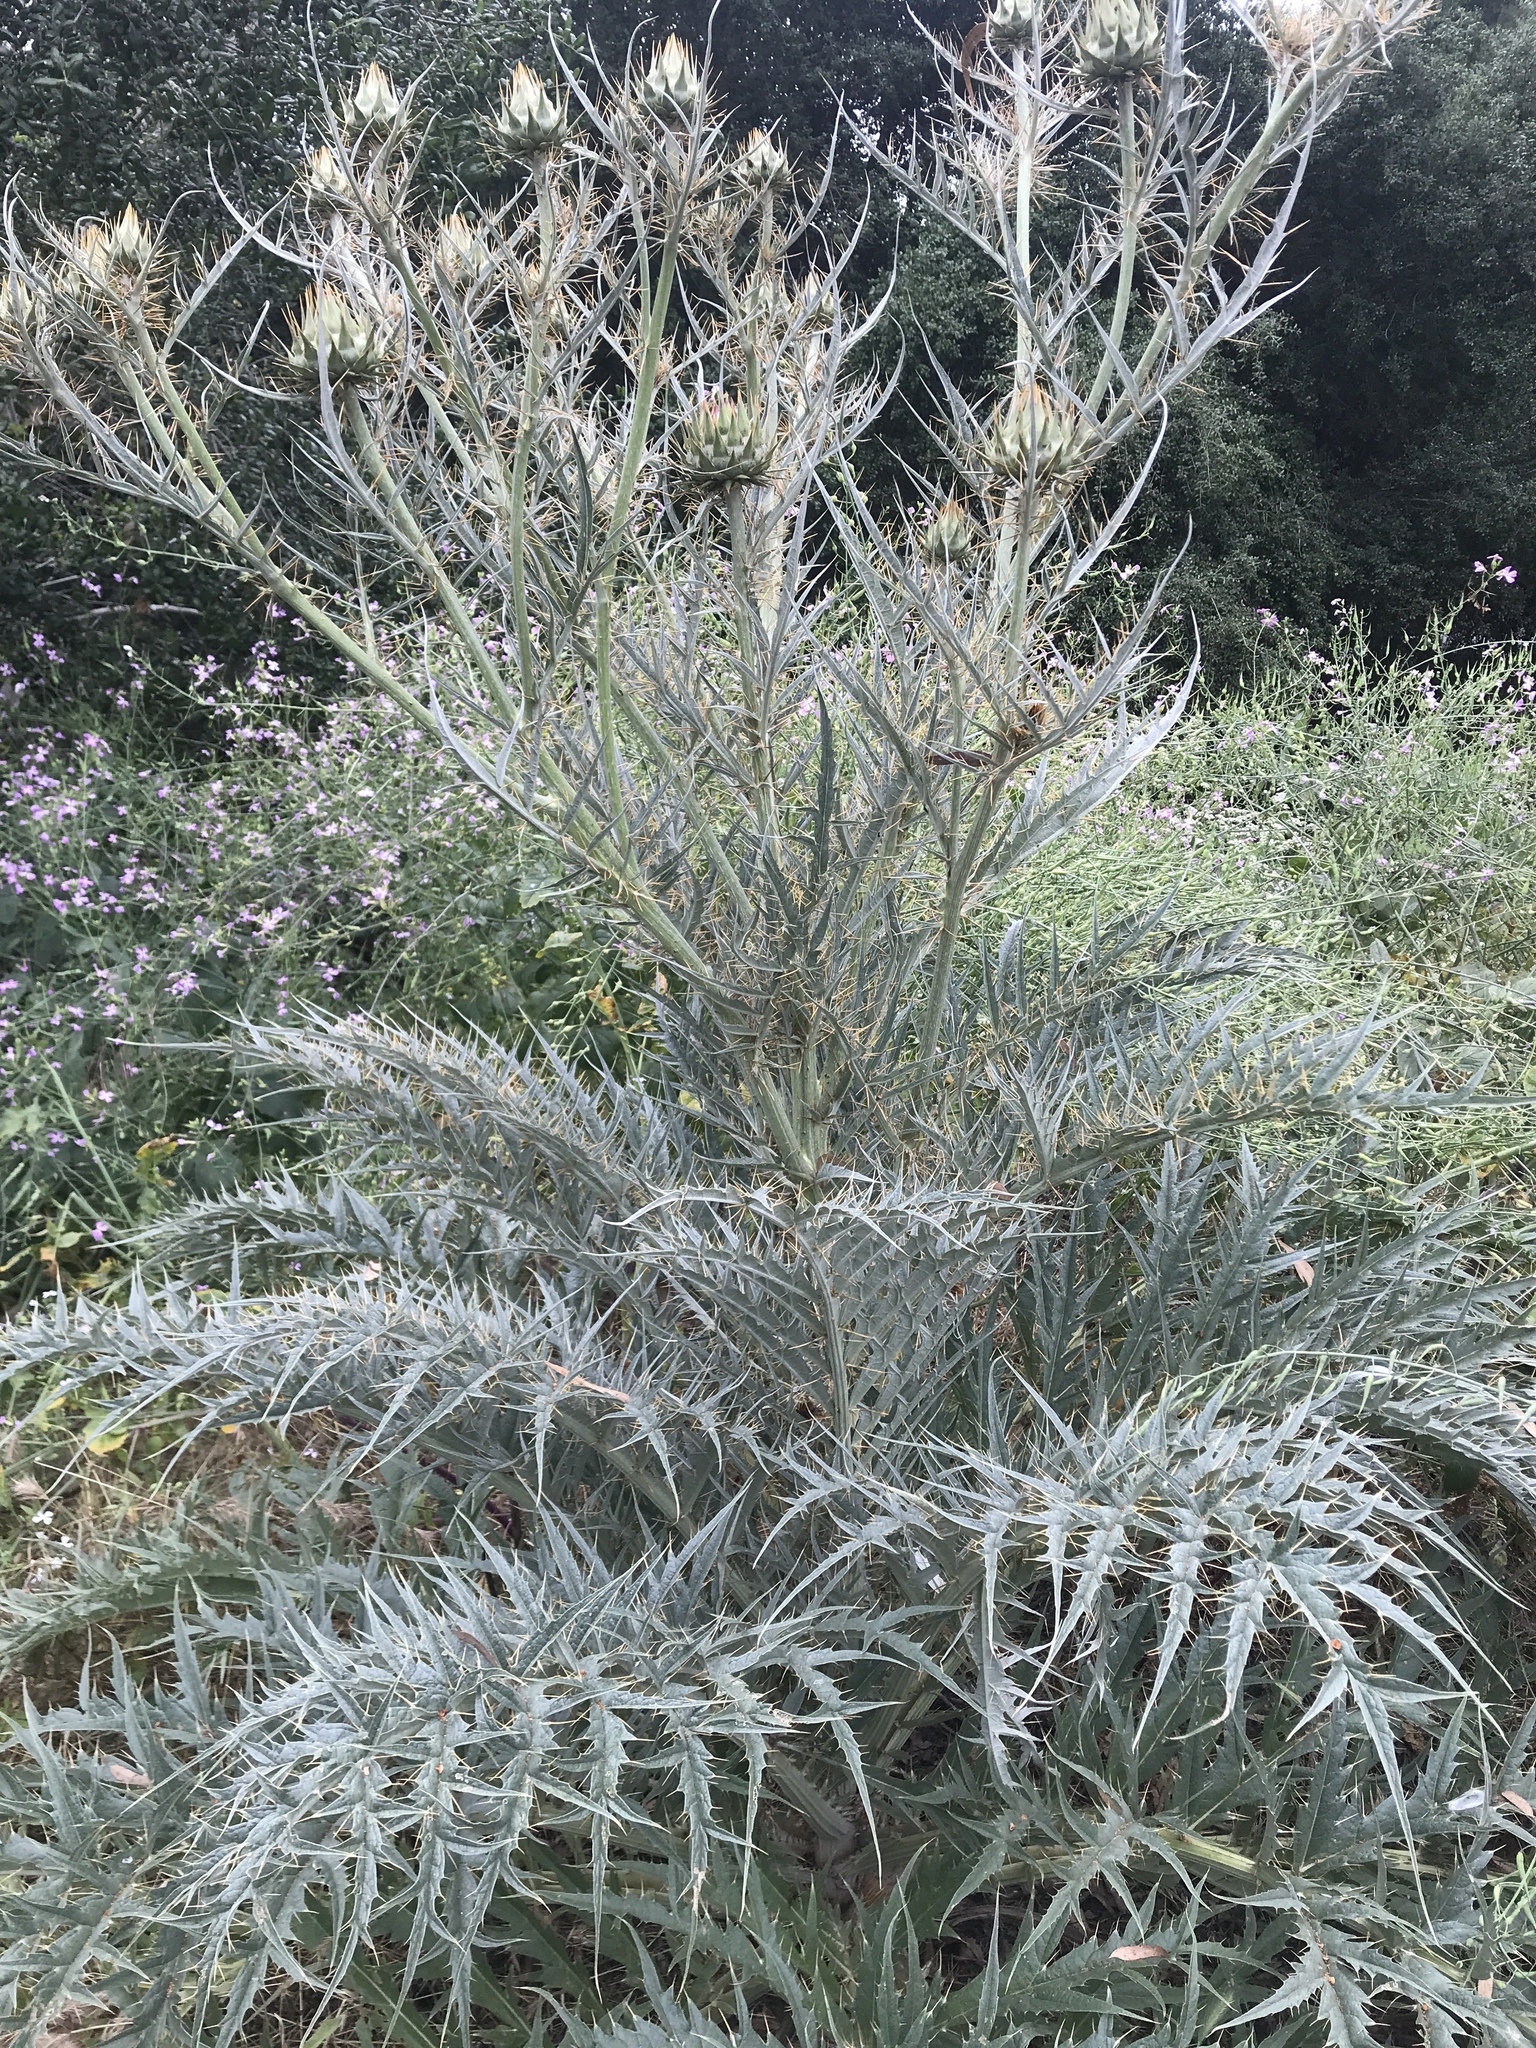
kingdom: Plantae
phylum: Tracheophyta
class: Magnoliopsida
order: Asterales
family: Asteraceae
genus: Cynara
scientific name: Cynara cardunculus
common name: Globe artichoke
